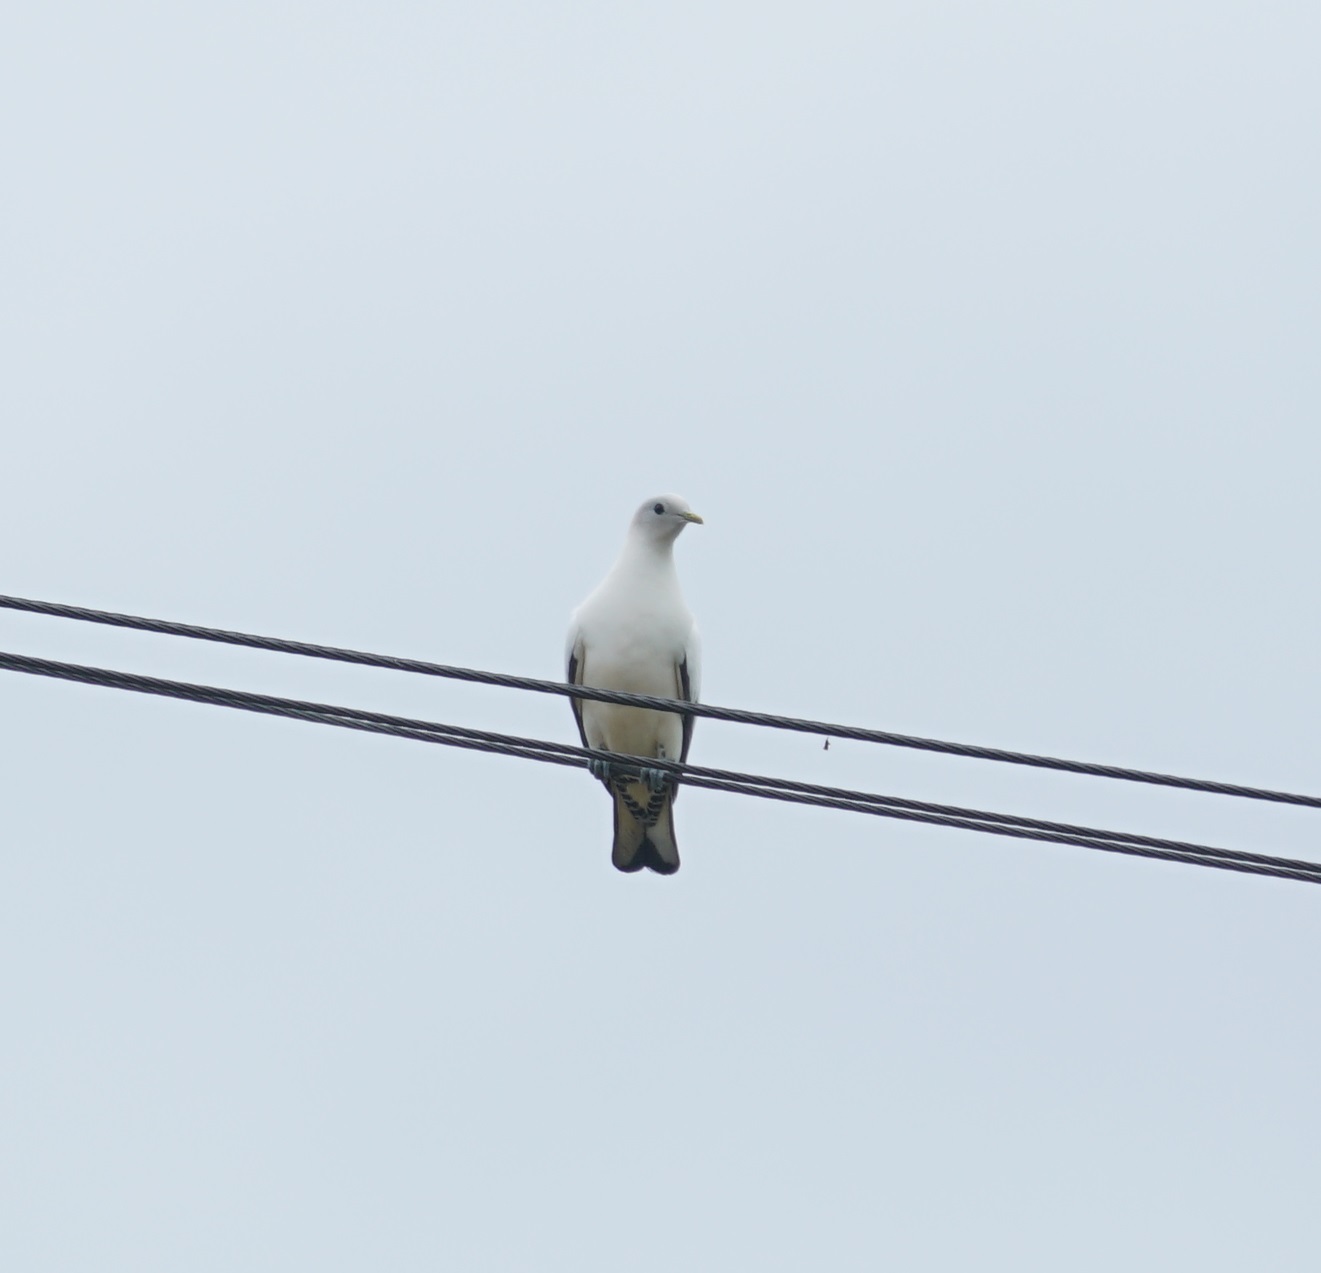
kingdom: Animalia
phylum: Chordata
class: Aves
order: Columbiformes
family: Columbidae
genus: Ducula
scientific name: Ducula spilorrhoa
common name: Torresian imperial pigeon
